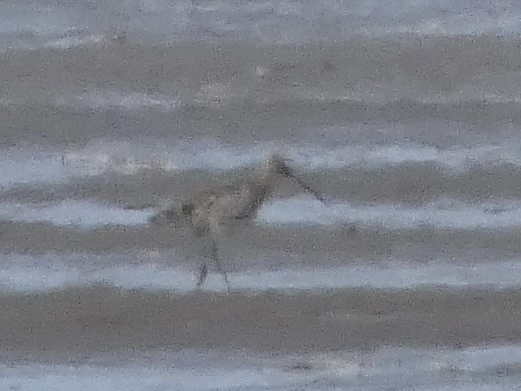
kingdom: Animalia
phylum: Chordata
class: Aves
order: Charadriiformes
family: Scolopacidae
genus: Numenius
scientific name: Numenius arquata
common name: Eurasian curlew
